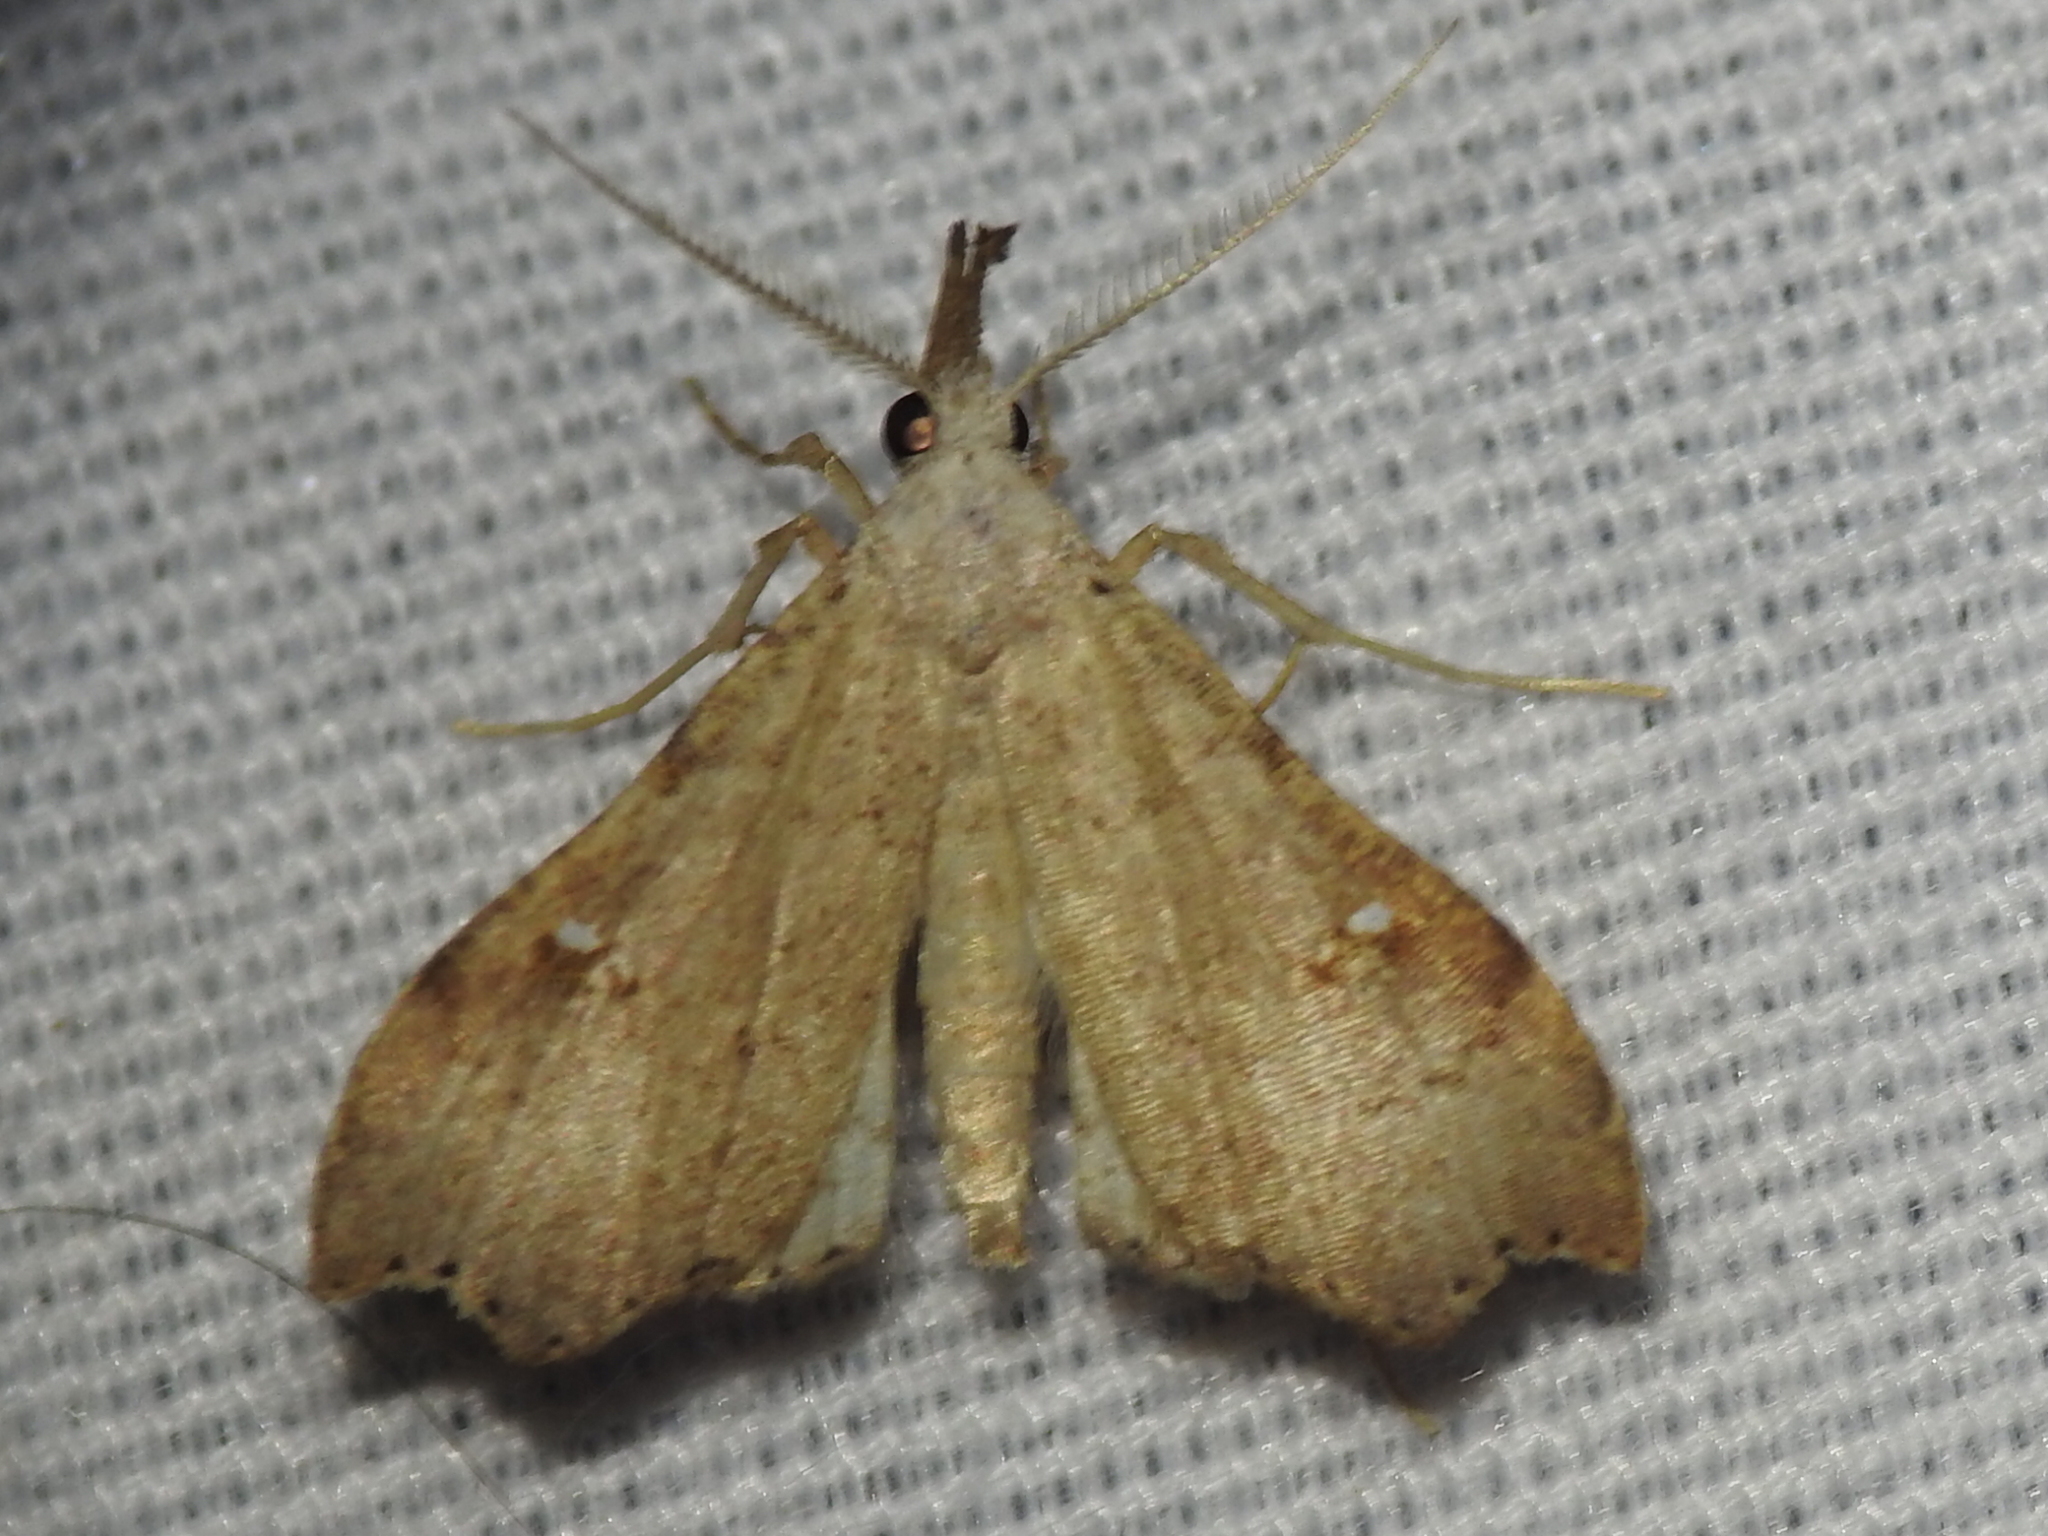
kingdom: Animalia
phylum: Arthropoda
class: Insecta
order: Lepidoptera
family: Erebidae
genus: Redectis
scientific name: Redectis vitrea
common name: White-spotted redectis
